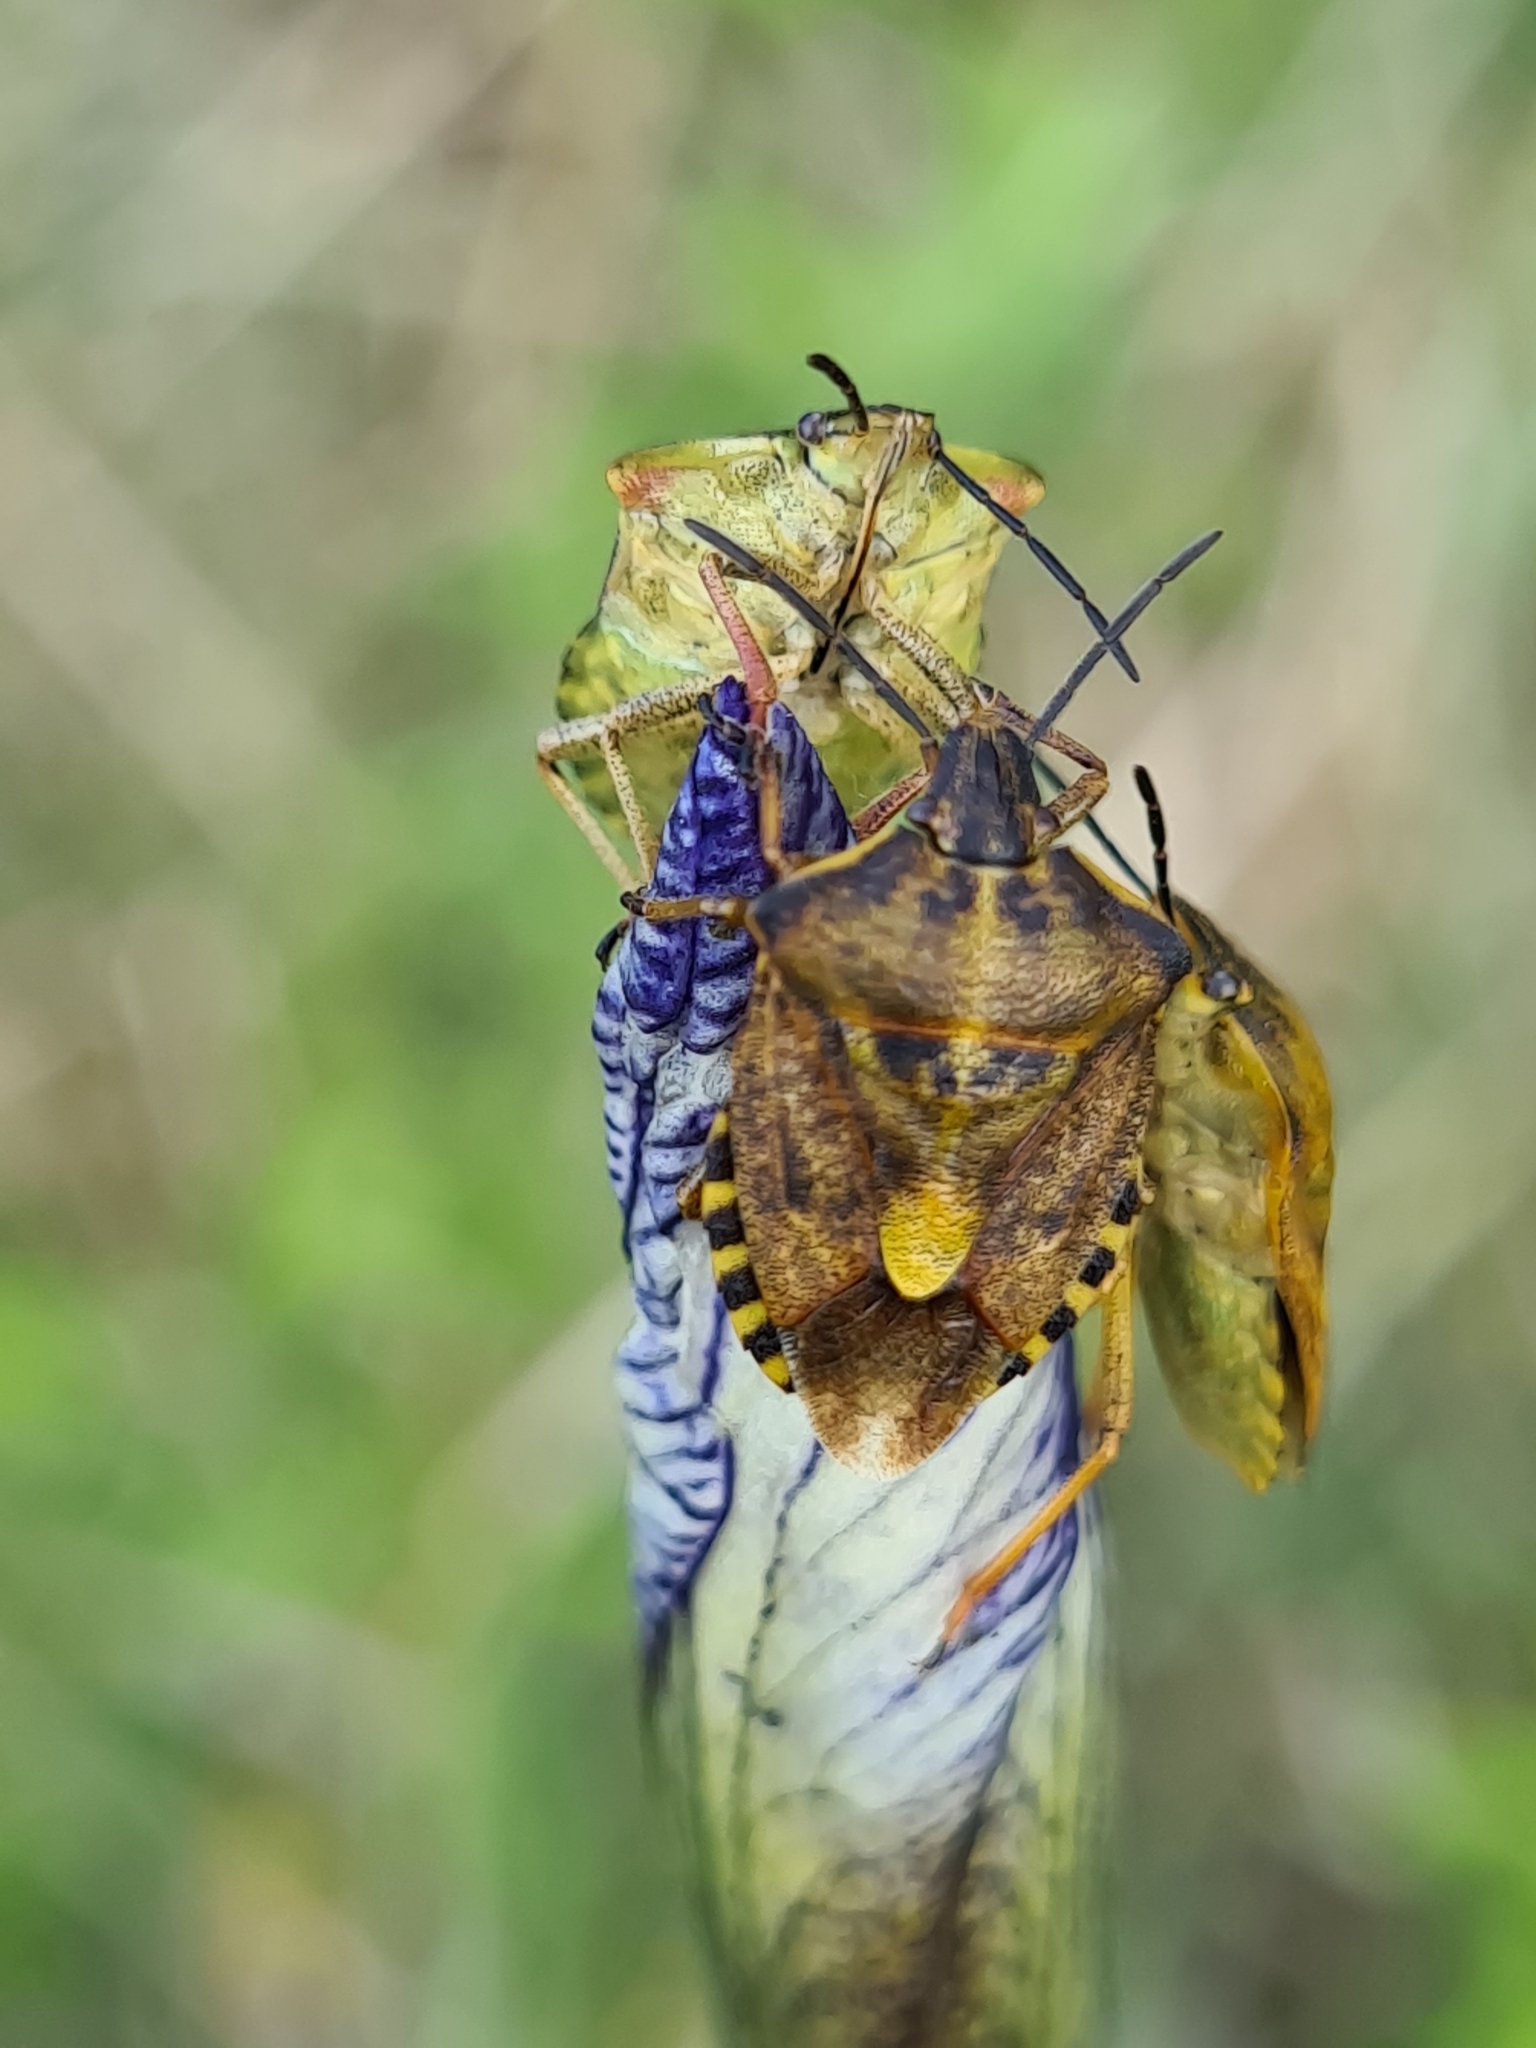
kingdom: Animalia
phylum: Arthropoda
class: Insecta
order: Hemiptera
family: Pentatomidae
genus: Carpocoris
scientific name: Carpocoris purpureipennis
